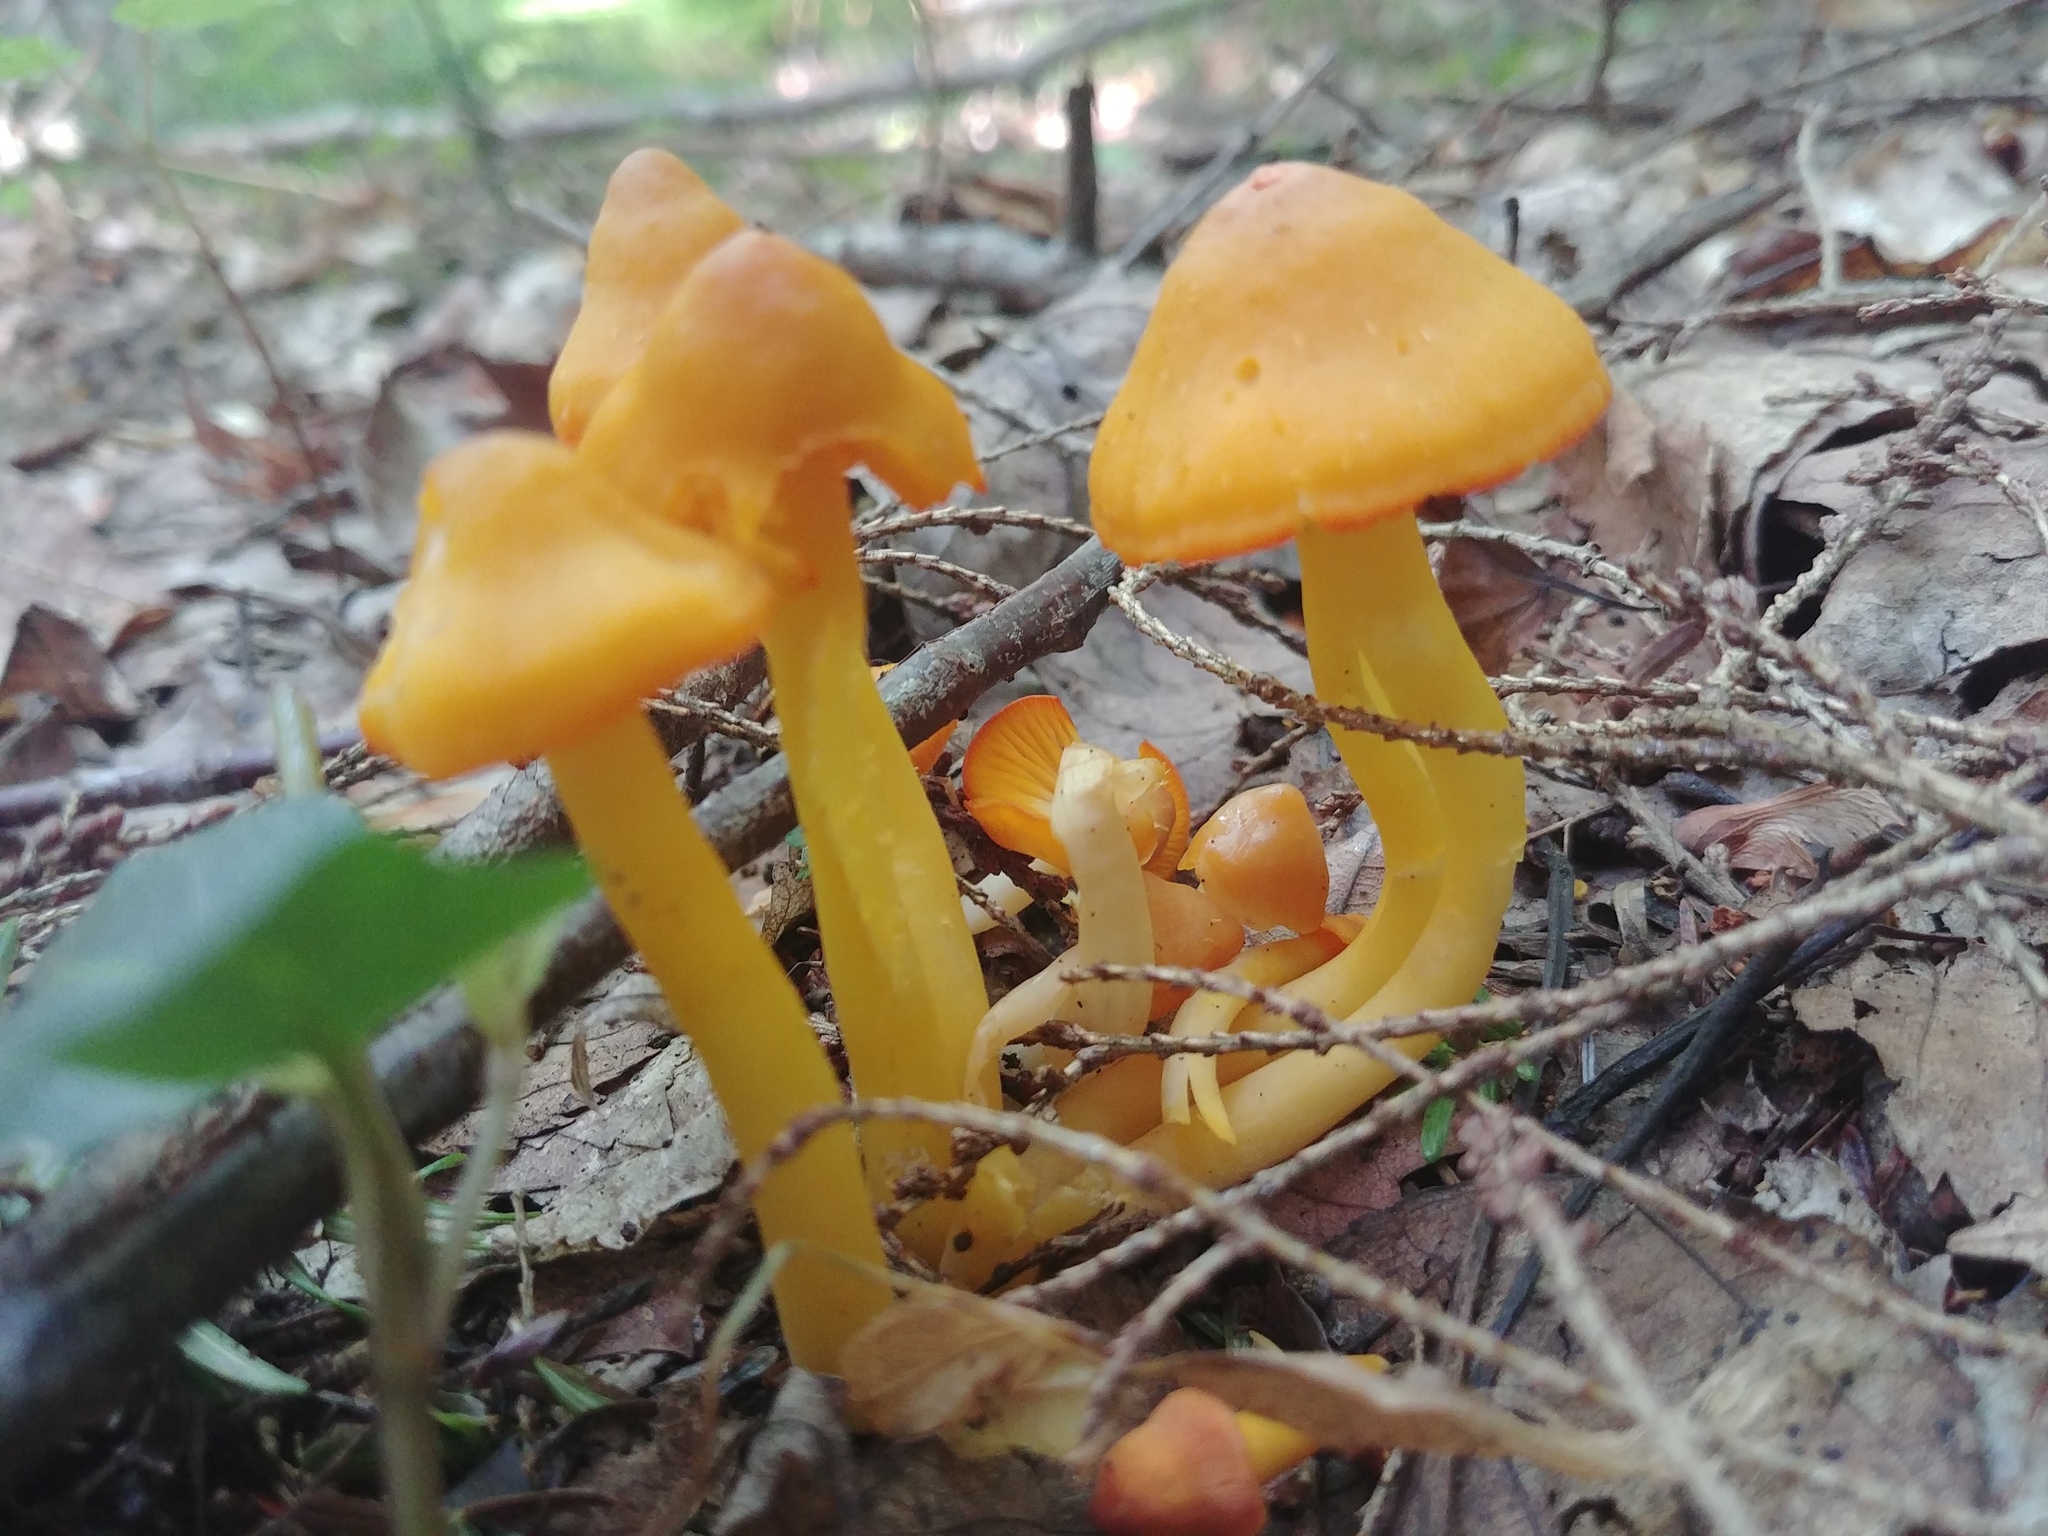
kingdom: Fungi
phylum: Basidiomycota
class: Agaricomycetes
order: Agaricales
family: Hygrophoraceae
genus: Humidicutis
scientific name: Humidicutis marginata
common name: Orange gilled waxcap
